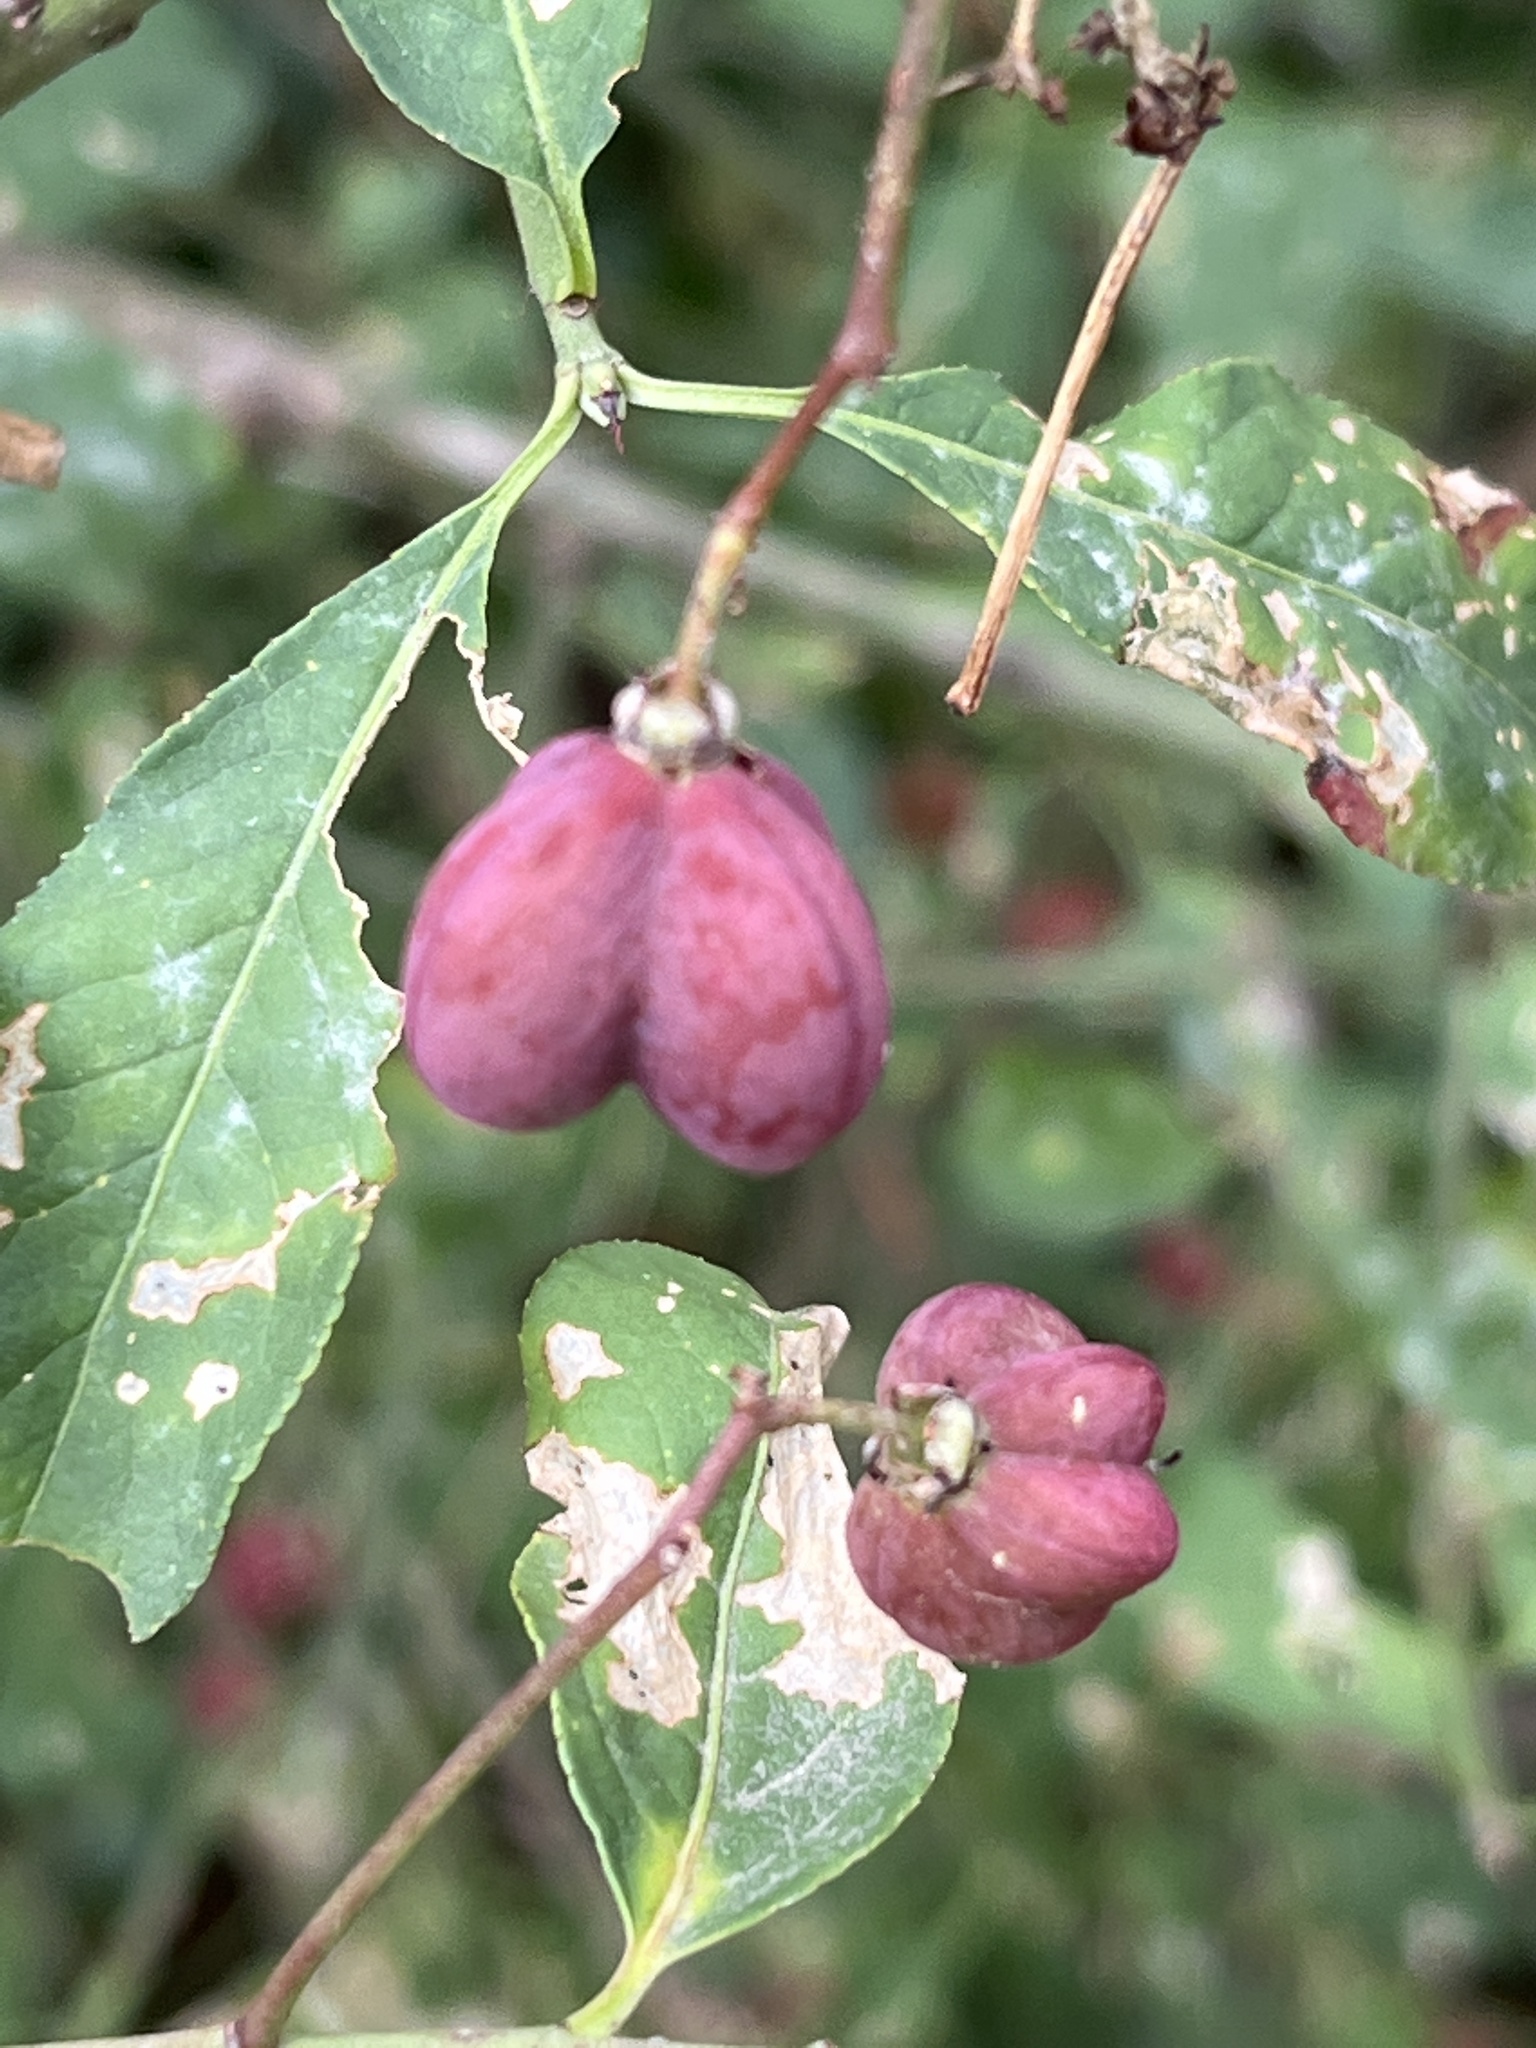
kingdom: Plantae
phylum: Tracheophyta
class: Magnoliopsida
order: Celastrales
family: Celastraceae
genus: Euonymus
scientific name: Euonymus europaeus
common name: Spindle
